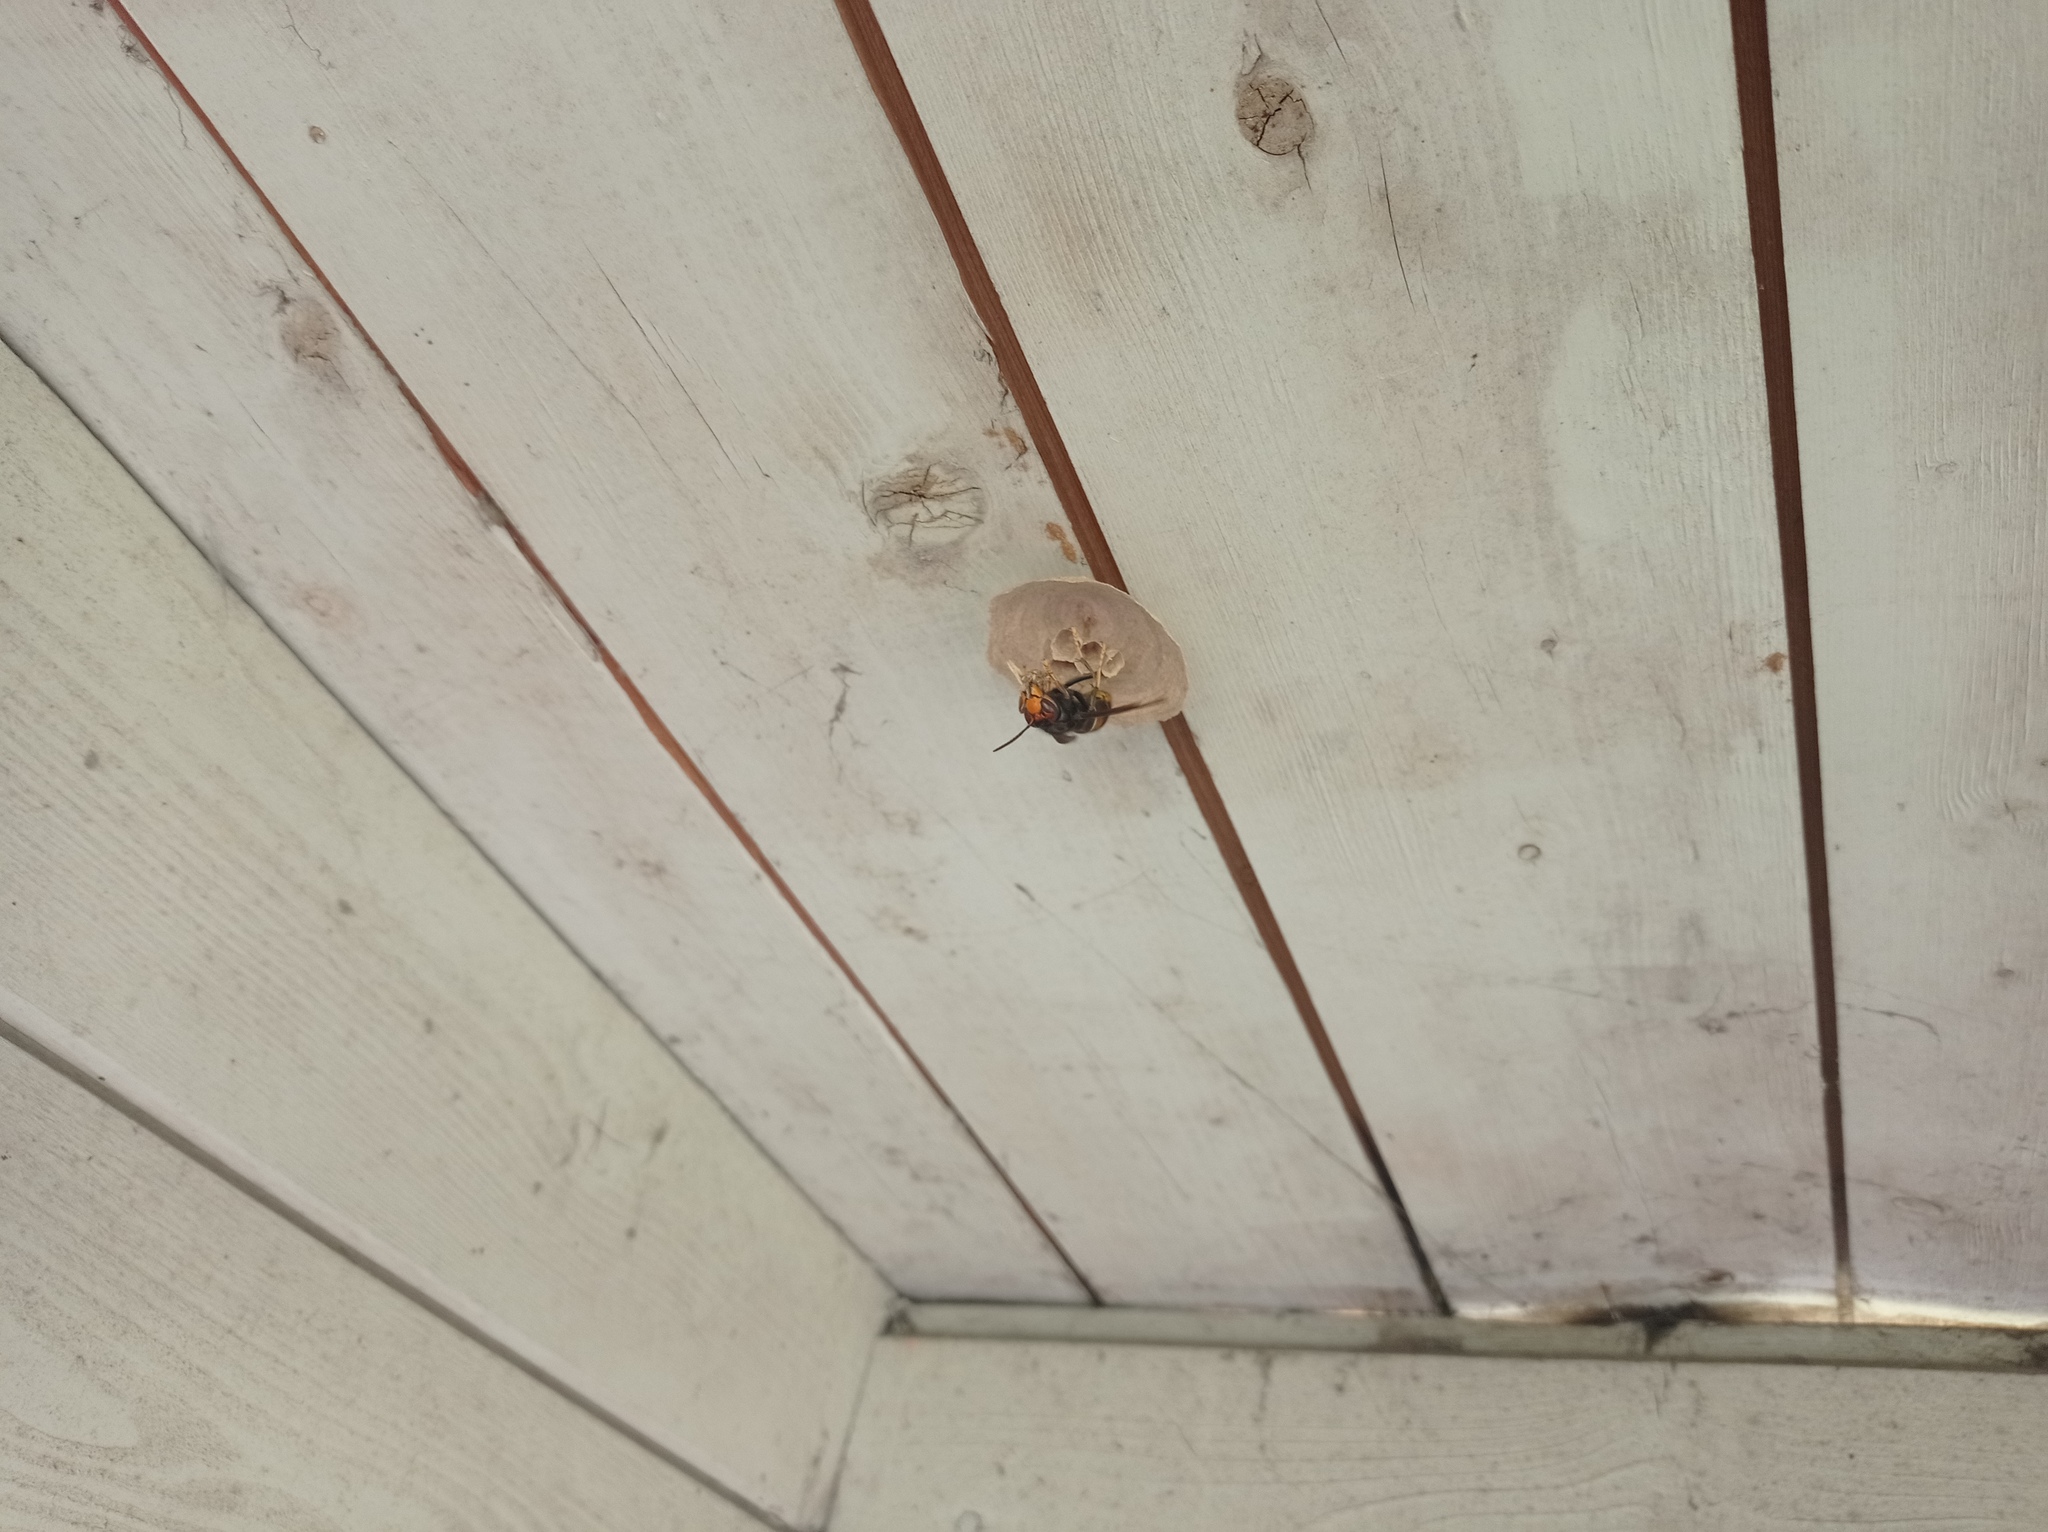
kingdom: Animalia
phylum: Arthropoda
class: Insecta
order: Hymenoptera
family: Vespidae
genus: Vespa
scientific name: Vespa velutina
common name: Asian hornet
